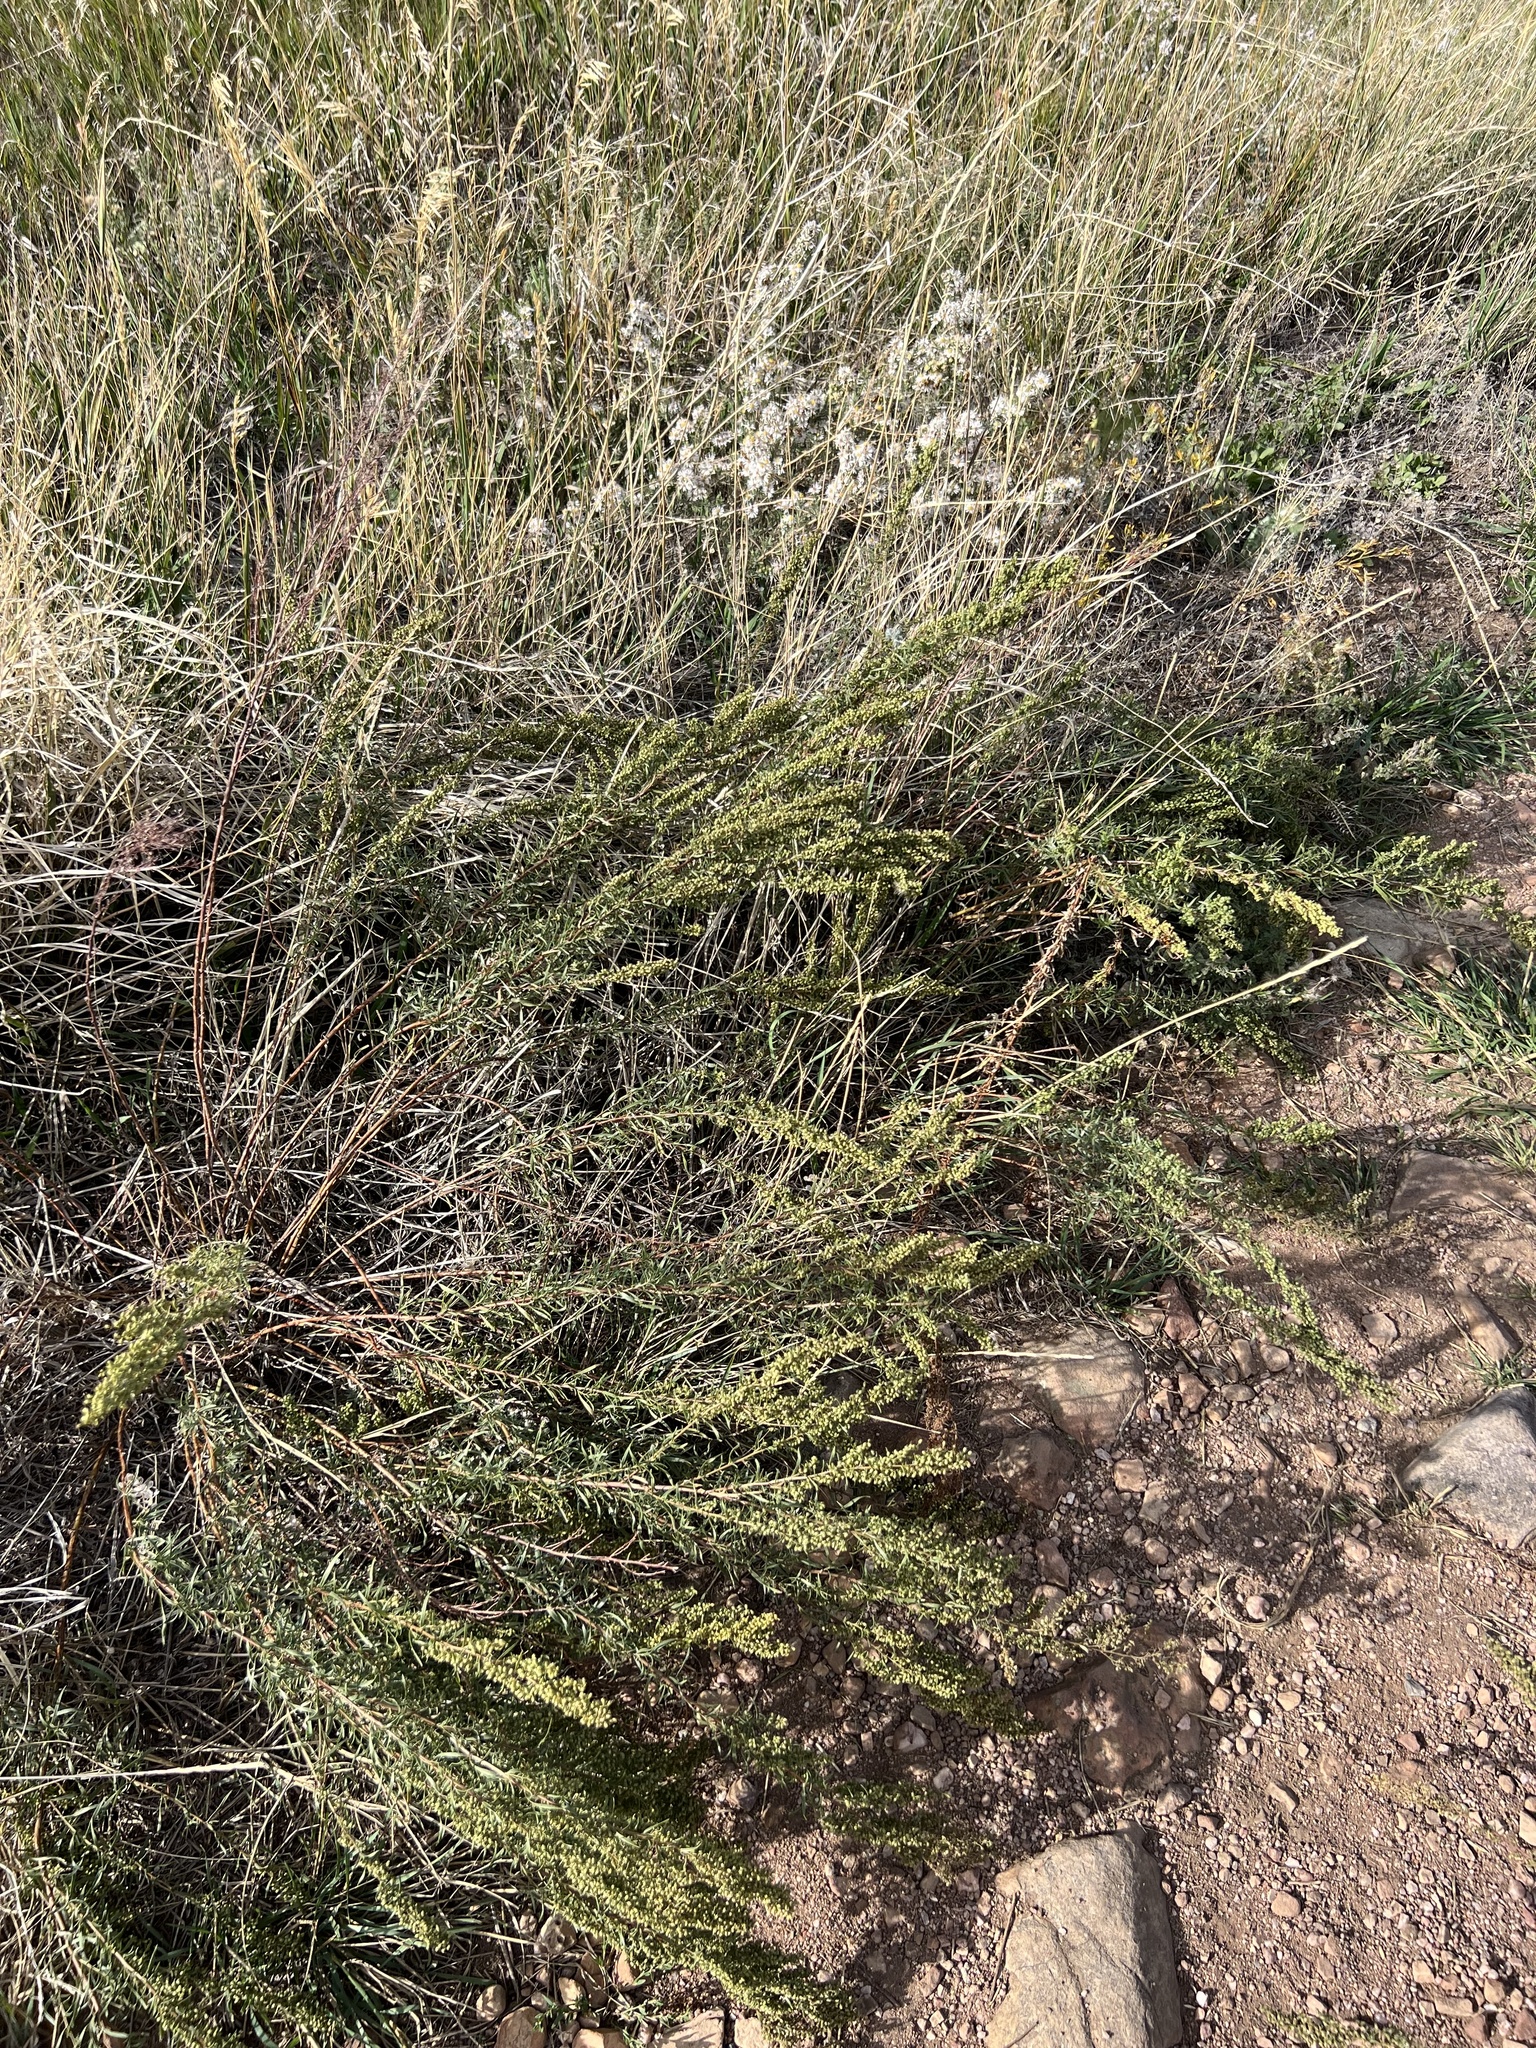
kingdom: Plantae
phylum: Tracheophyta
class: Magnoliopsida
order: Asterales
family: Asteraceae
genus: Artemisia
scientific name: Artemisia campestris
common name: Field wormwood
